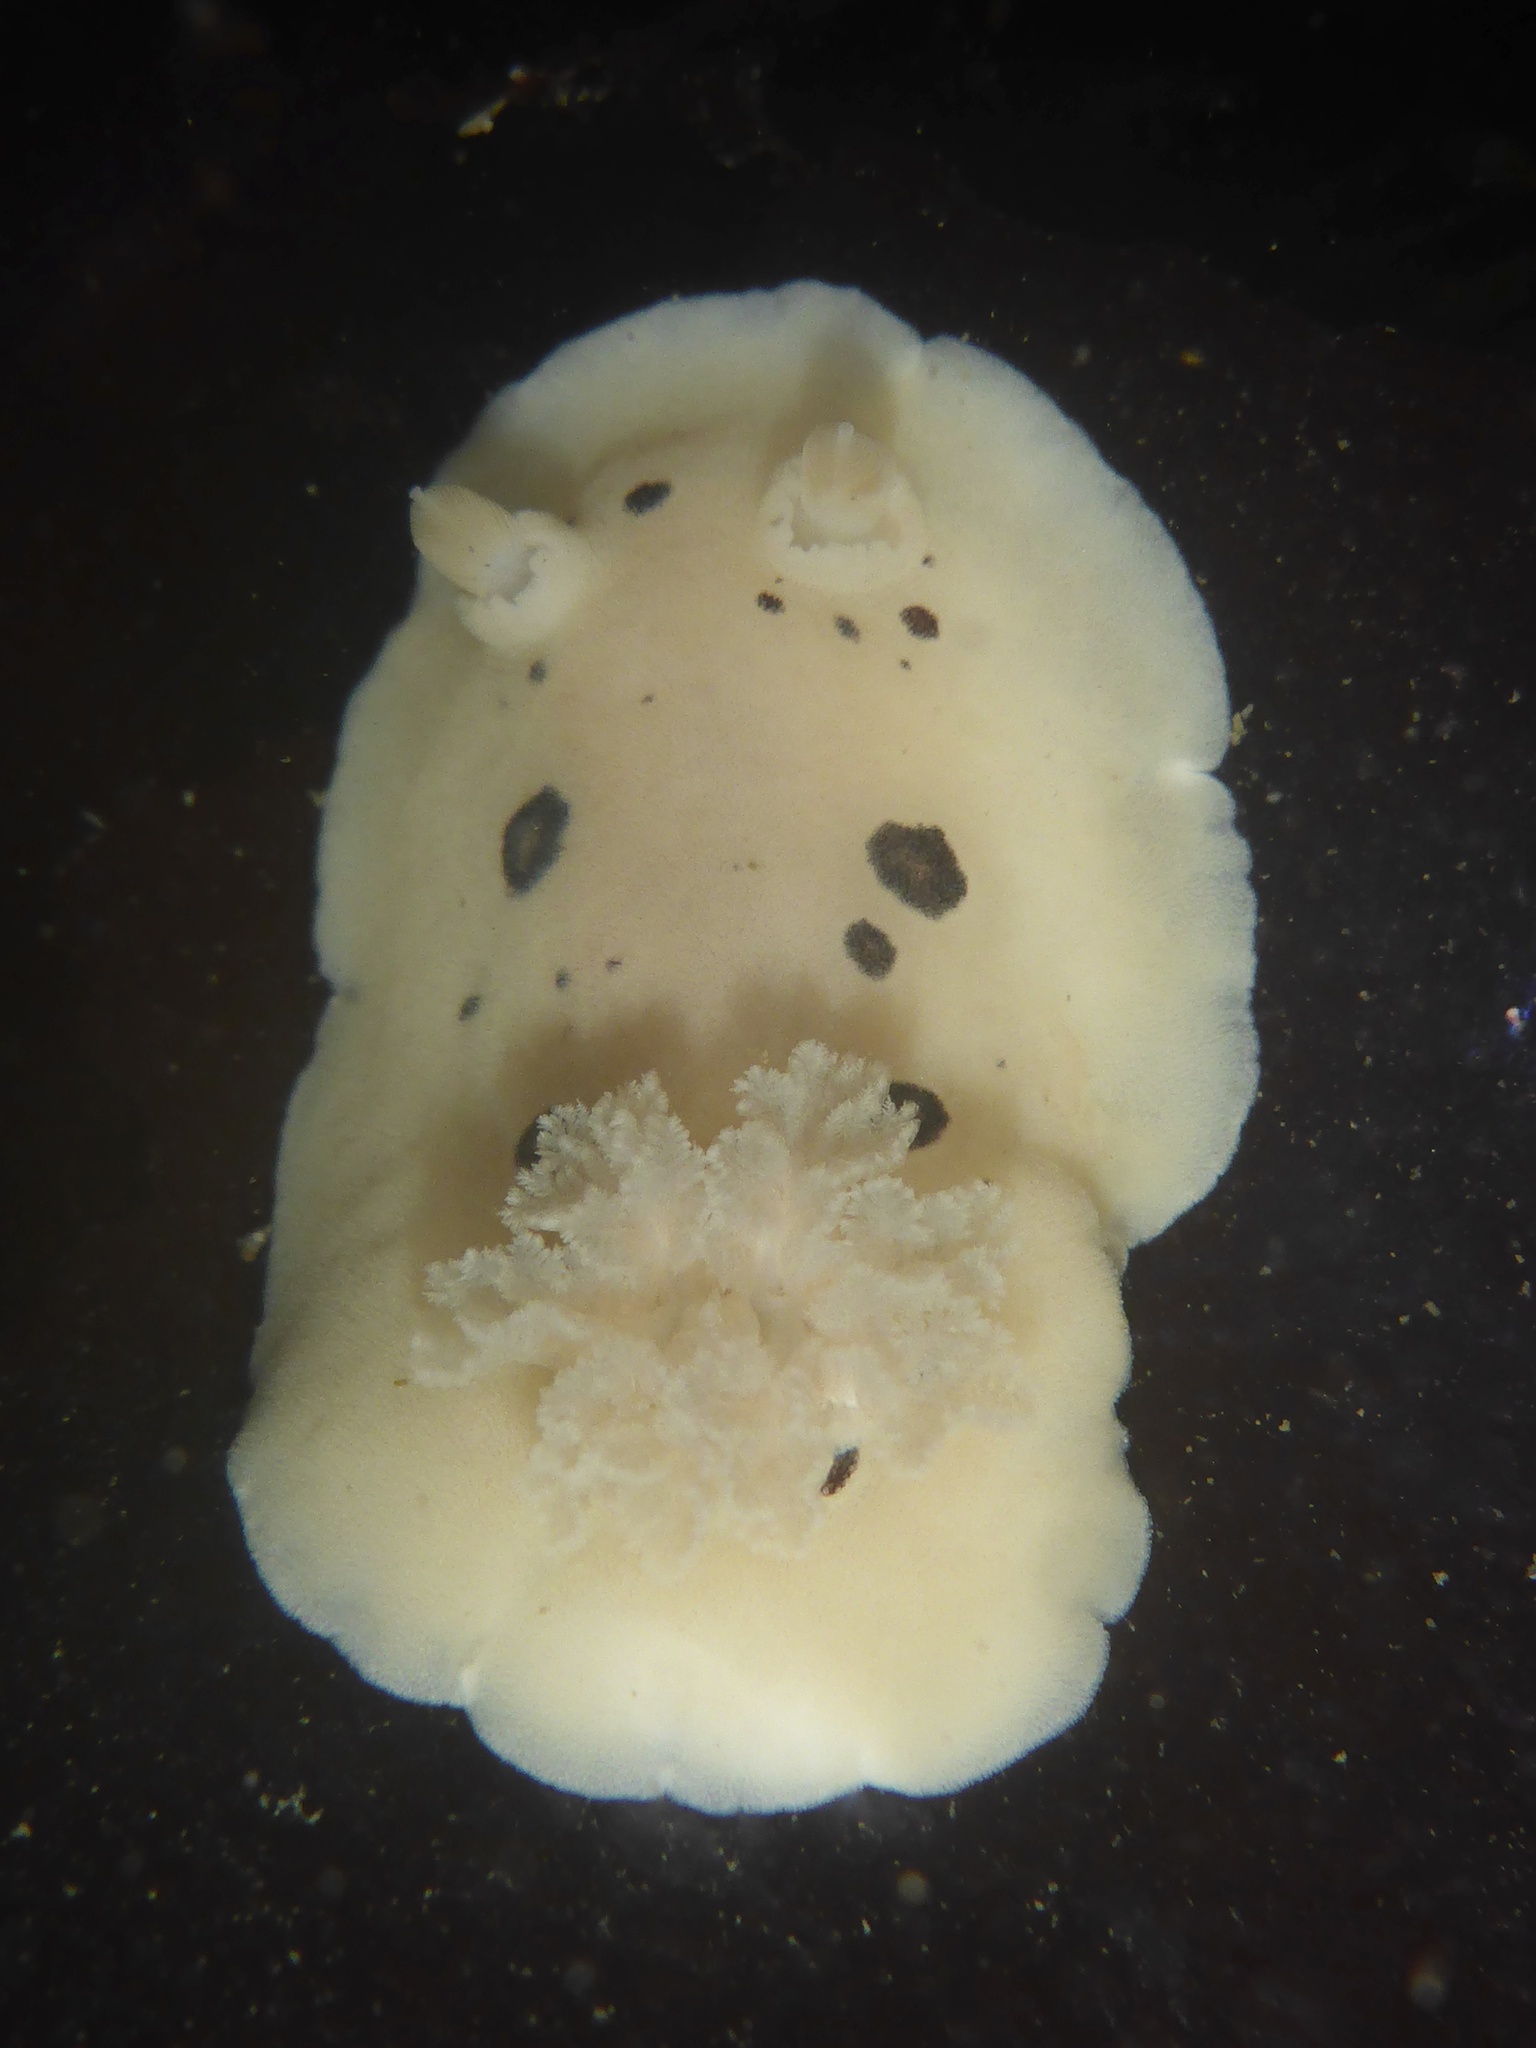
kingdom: Animalia
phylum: Mollusca
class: Gastropoda
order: Nudibranchia
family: Discodorididae
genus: Diaulula
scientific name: Diaulula sandiegensis
